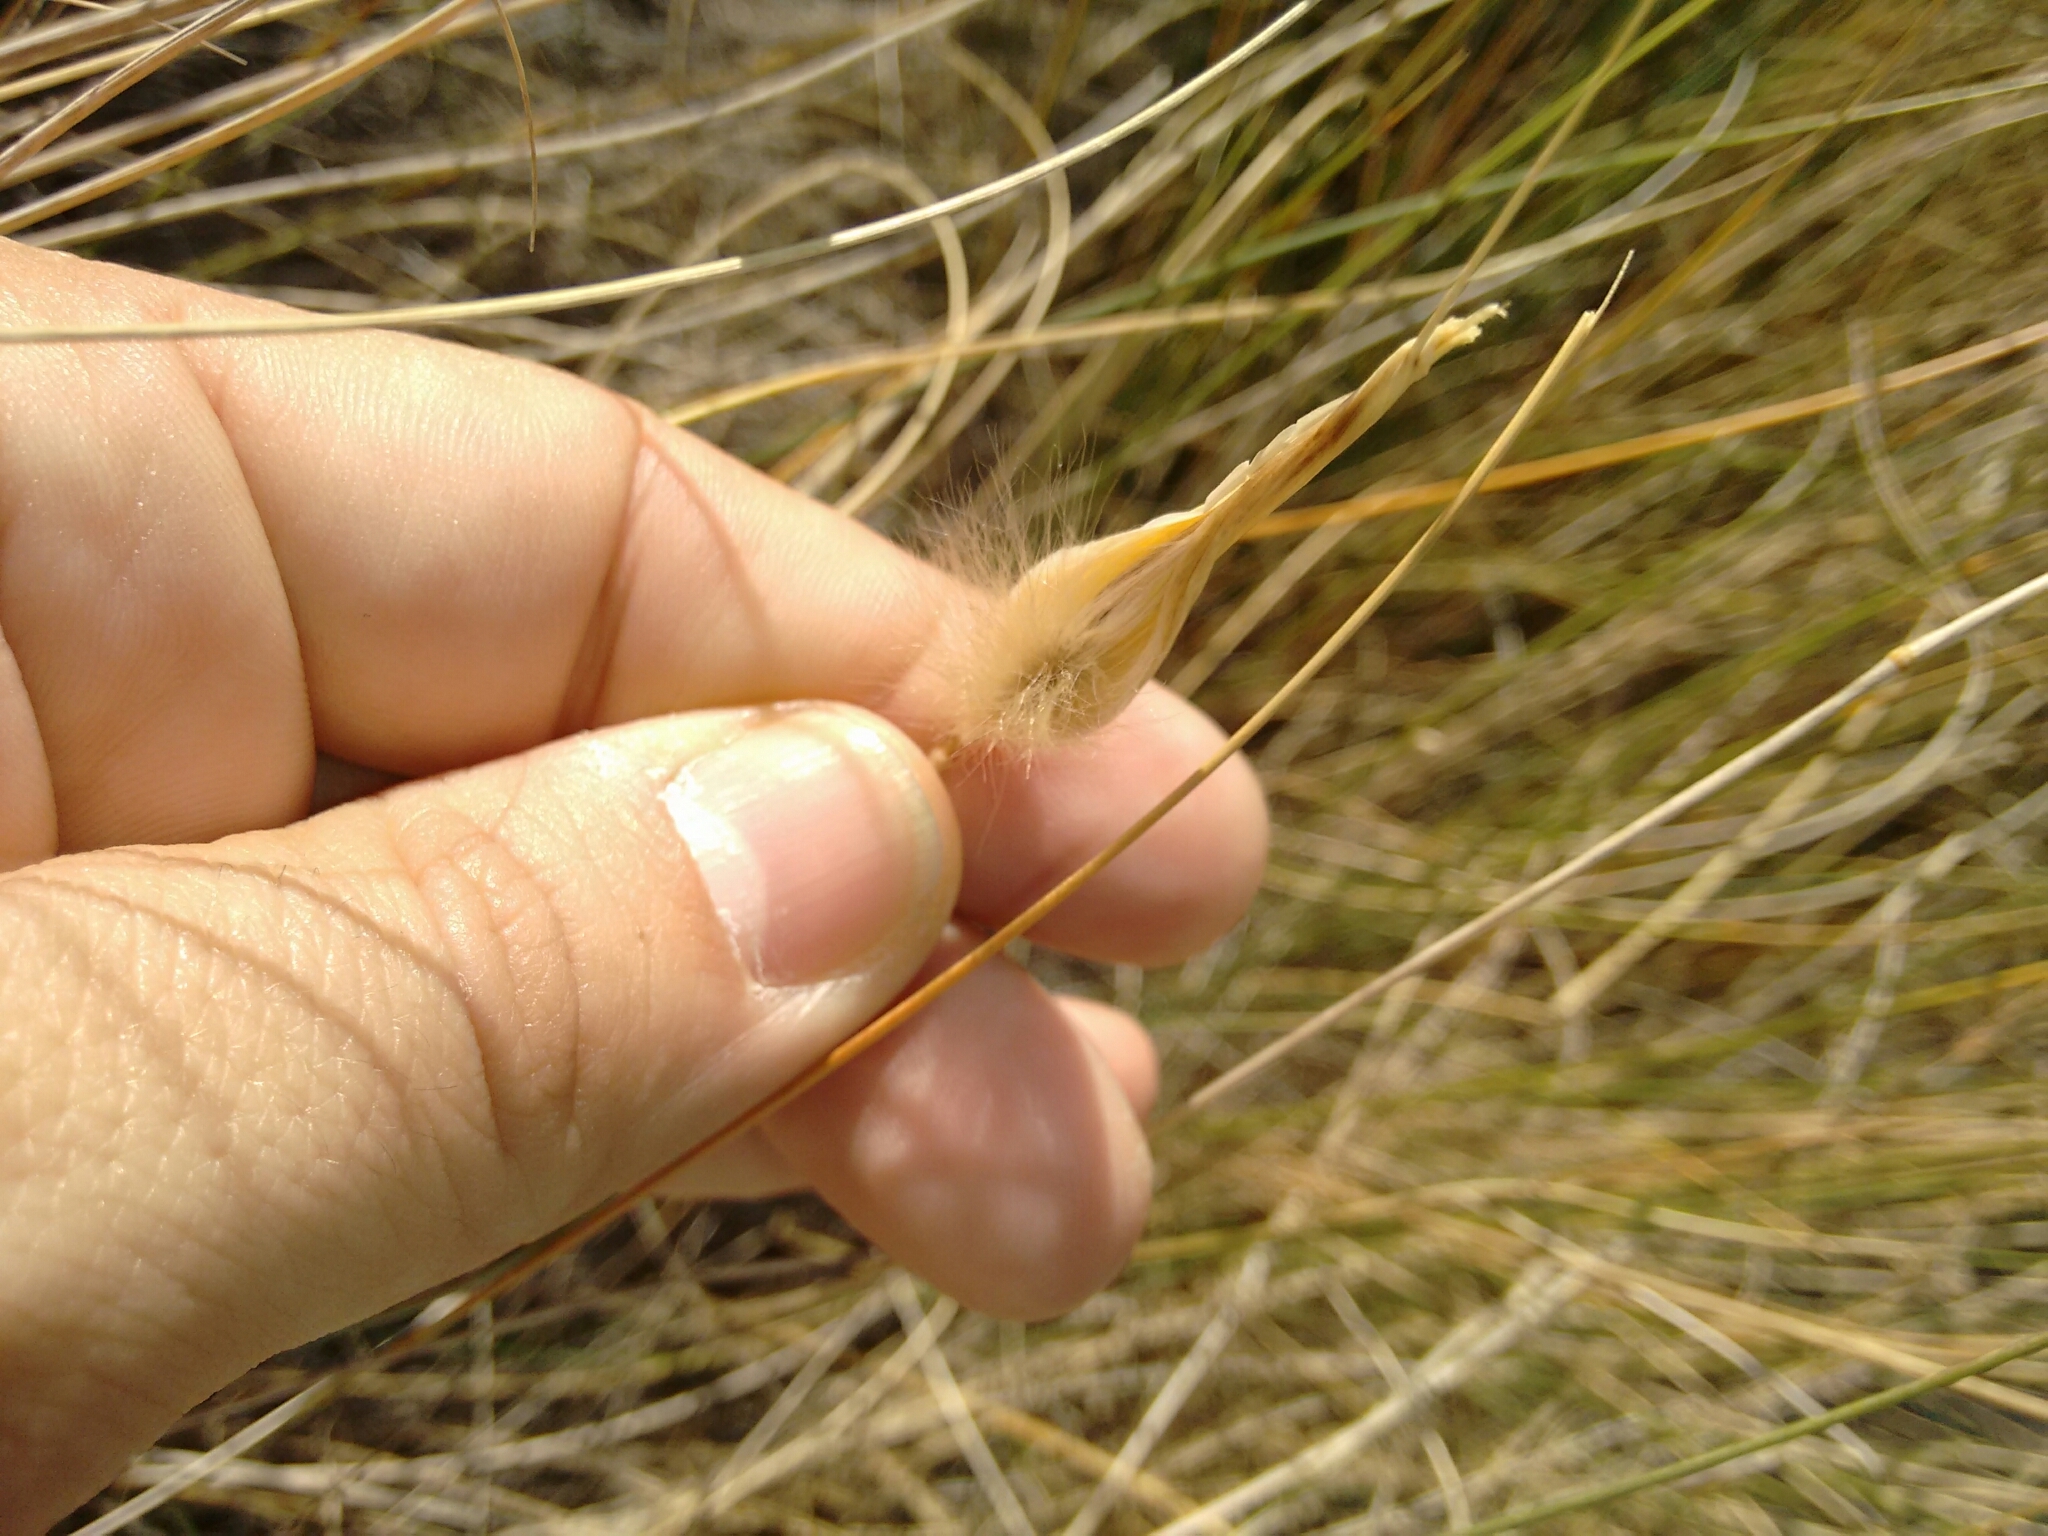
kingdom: Plantae
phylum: Tracheophyta
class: Liliopsida
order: Poales
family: Poaceae
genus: Lygeum
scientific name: Lygeum spartum
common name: Albardine
